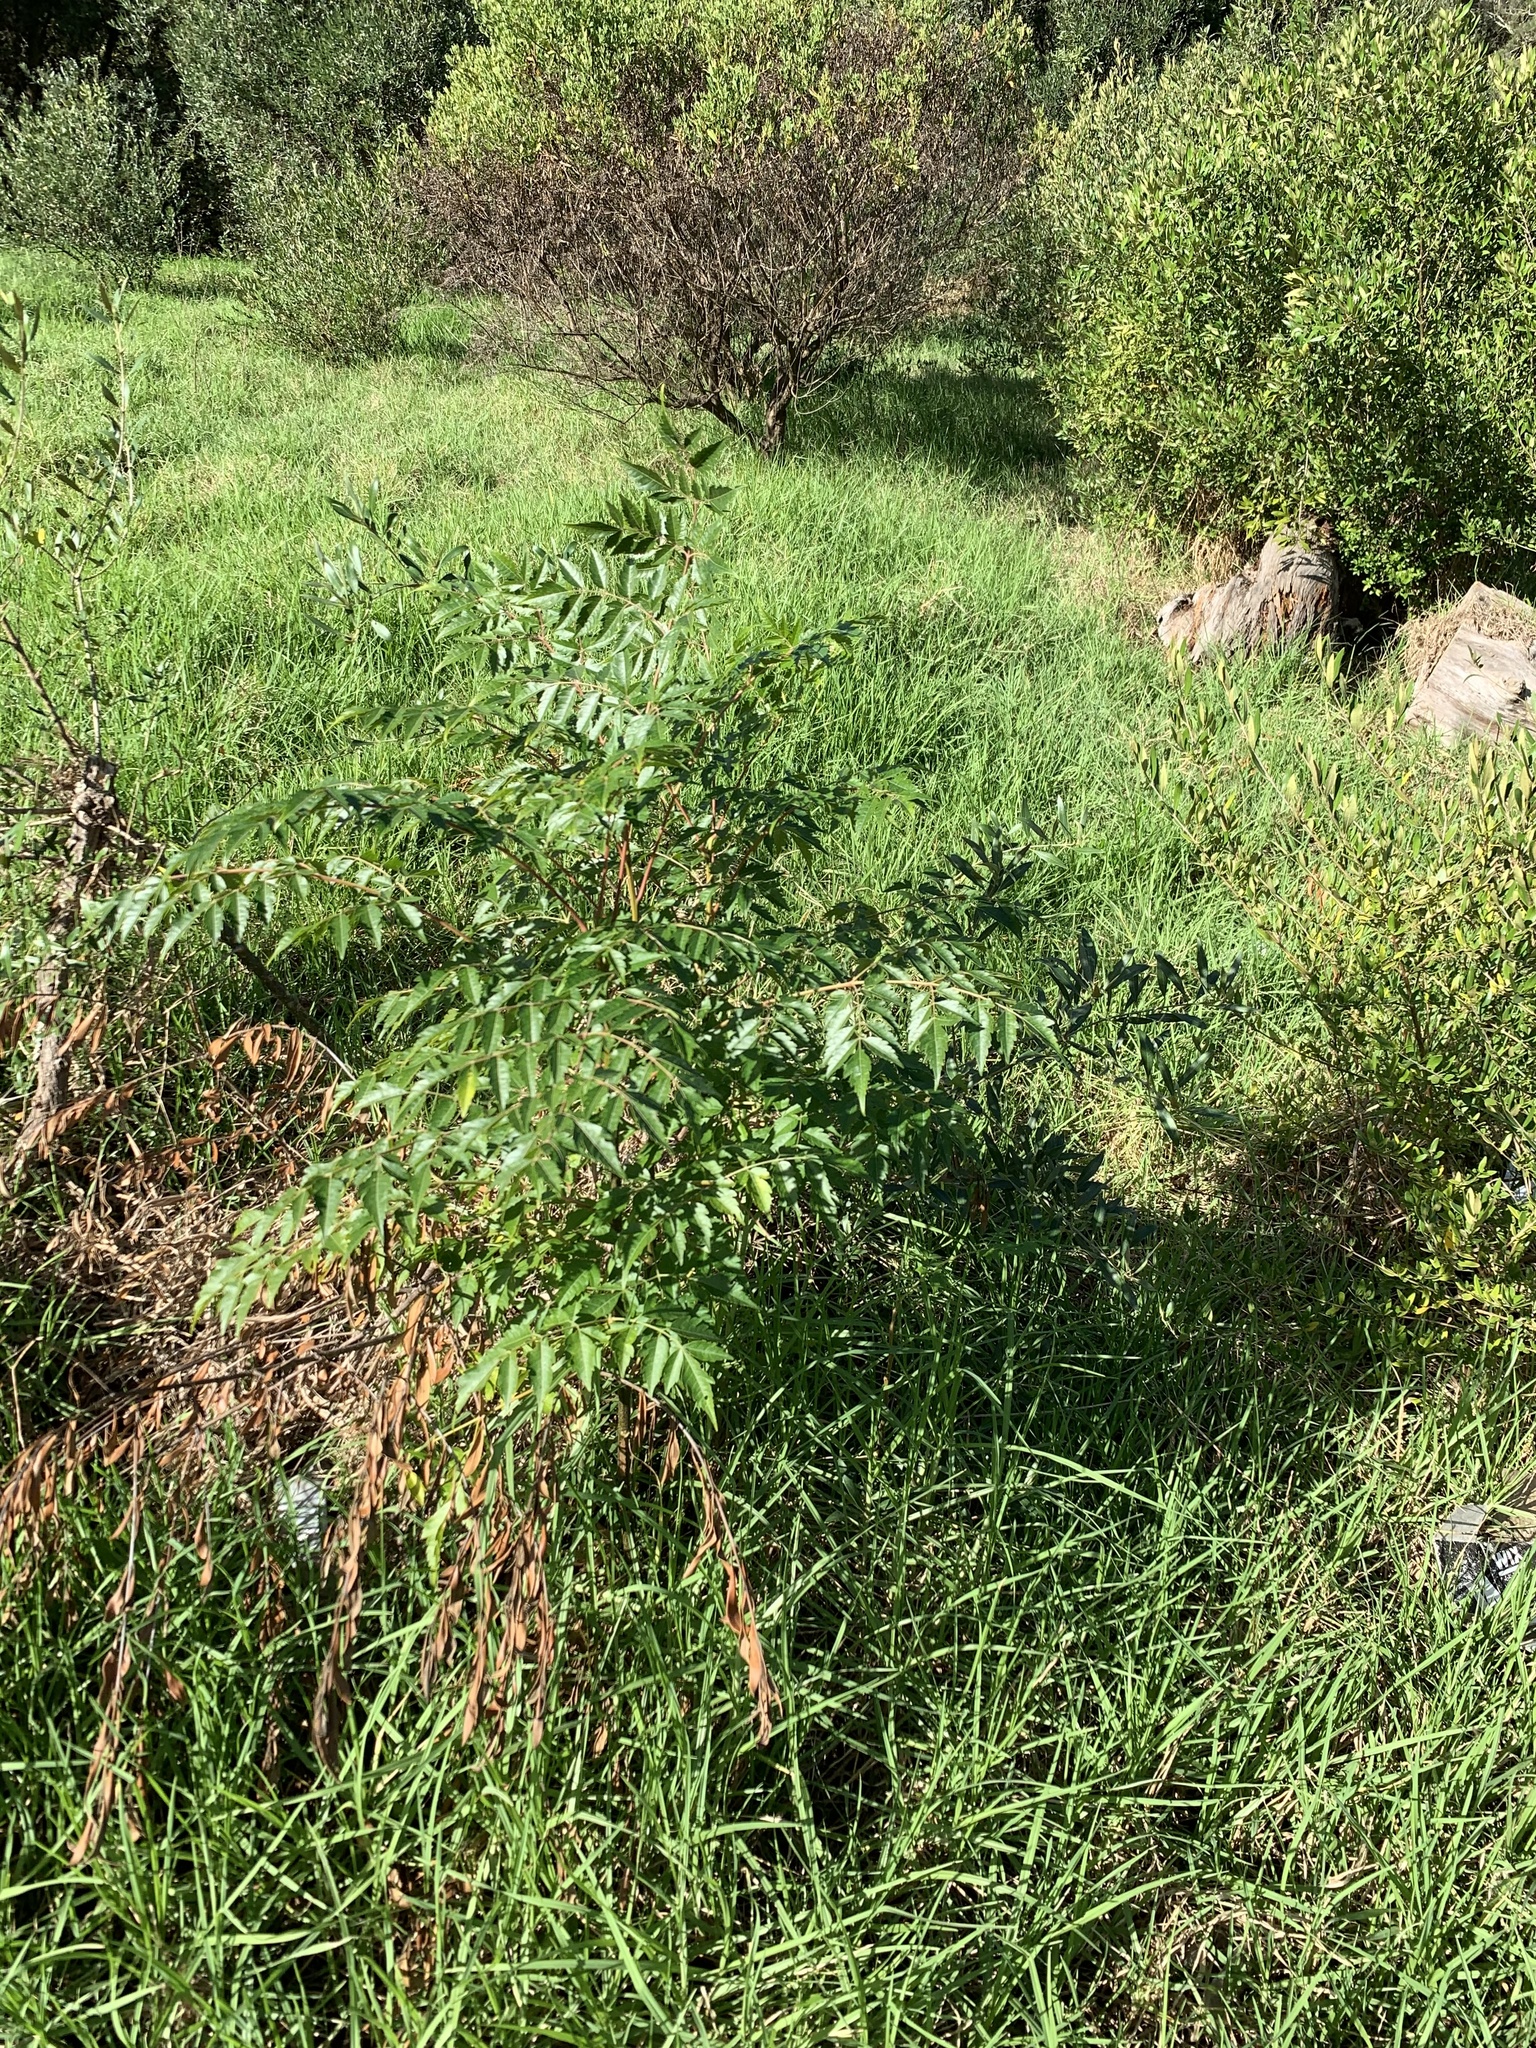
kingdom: Plantae
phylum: Tracheophyta
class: Magnoliopsida
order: Sapindales
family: Meliaceae
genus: Melia
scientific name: Melia azedarach
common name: Chinaberrytree
